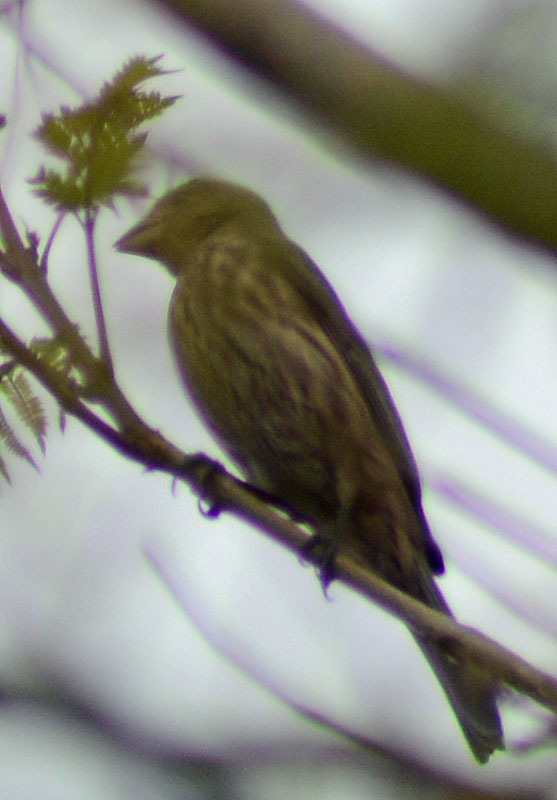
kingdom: Animalia
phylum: Chordata
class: Aves
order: Passeriformes
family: Fringillidae
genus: Haemorhous
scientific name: Haemorhous mexicanus
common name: House finch
